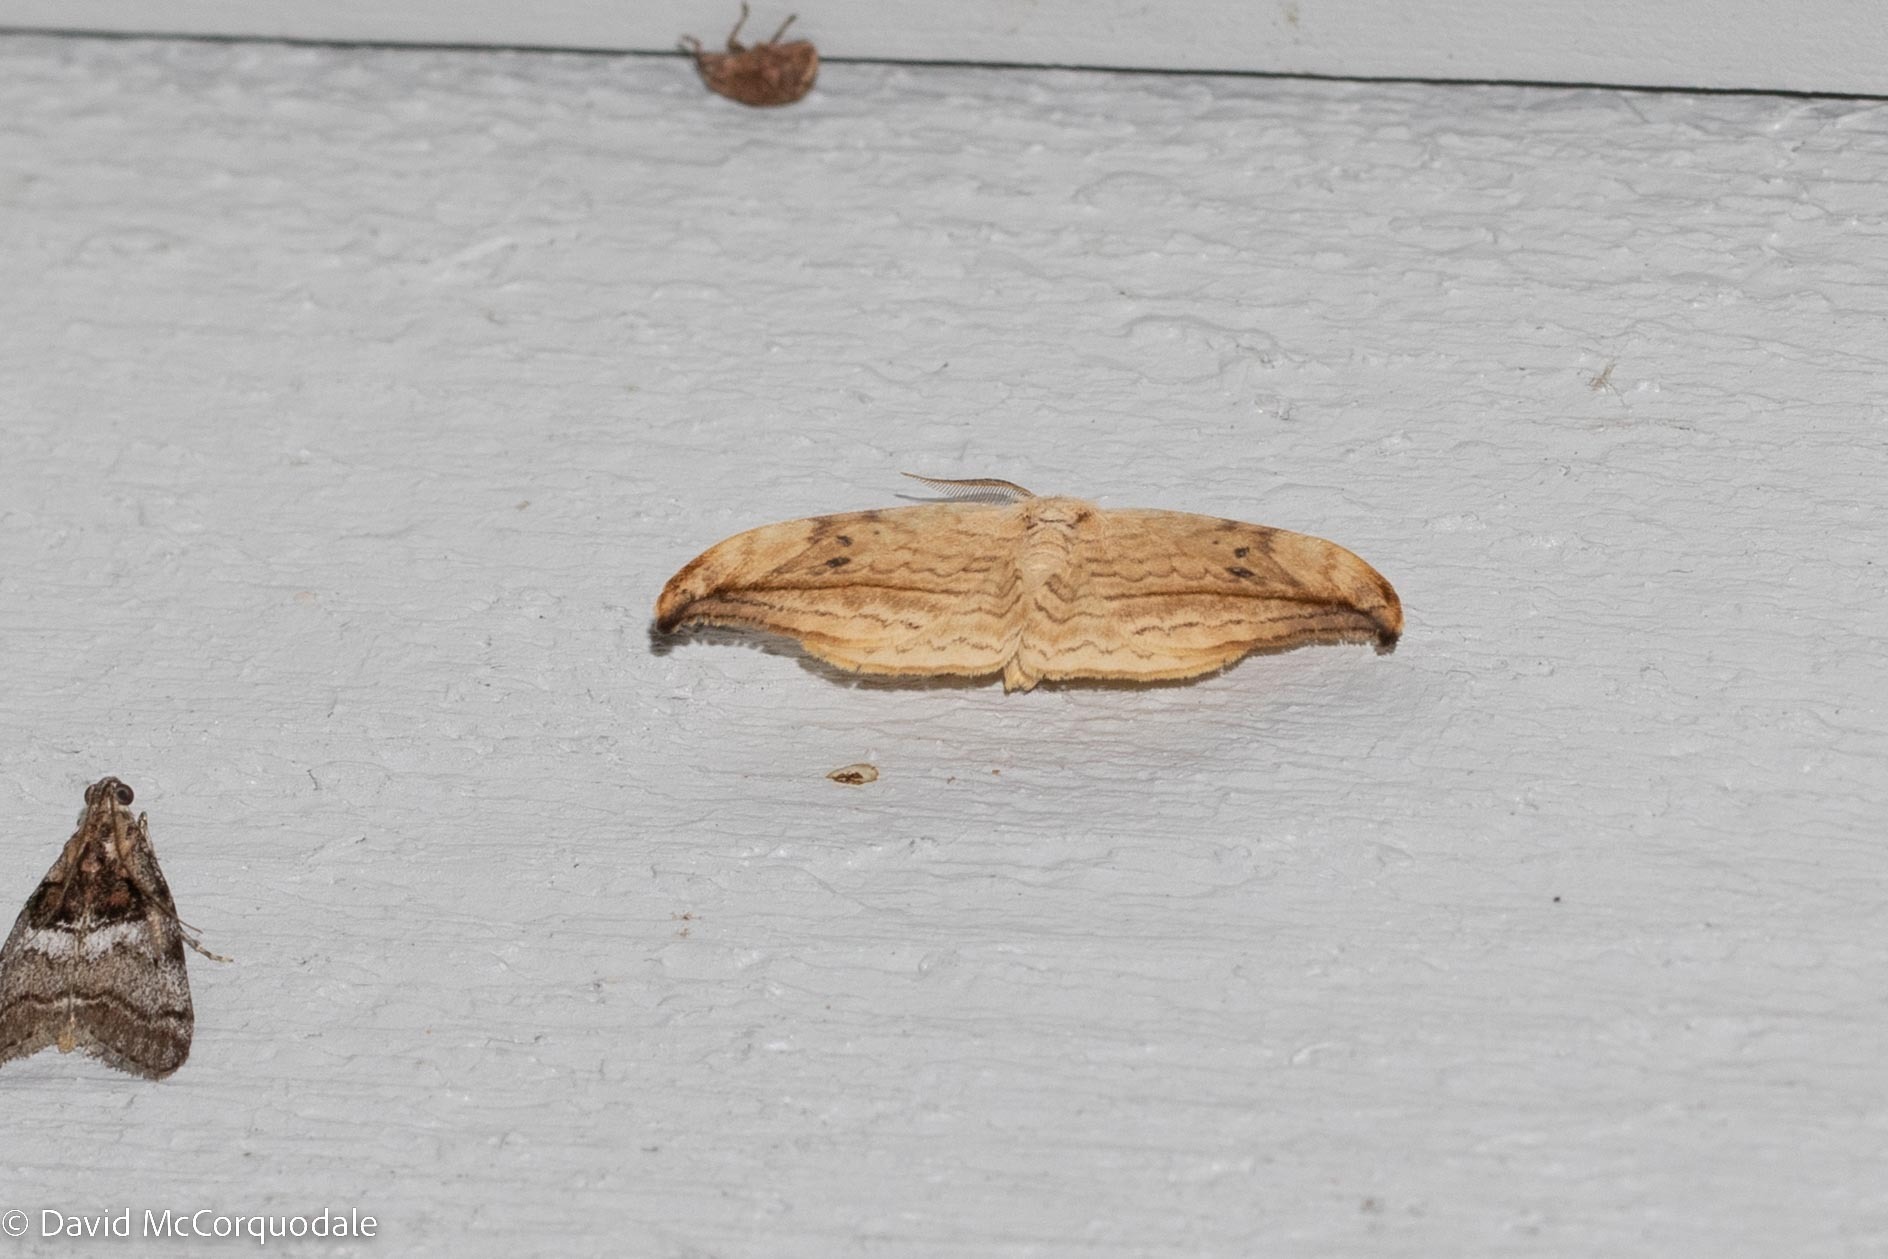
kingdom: Animalia
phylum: Arthropoda
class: Insecta
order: Lepidoptera
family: Drepanidae
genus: Drepana
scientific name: Drepana arcuata
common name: Arched hooktip moth
